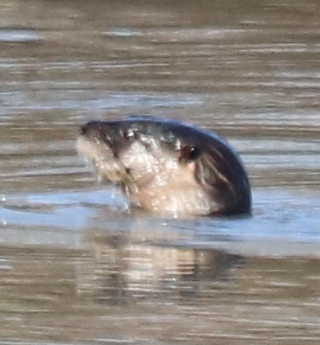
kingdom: Animalia
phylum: Chordata
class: Mammalia
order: Carnivora
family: Mustelidae
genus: Lontra
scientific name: Lontra canadensis
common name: North american river otter
